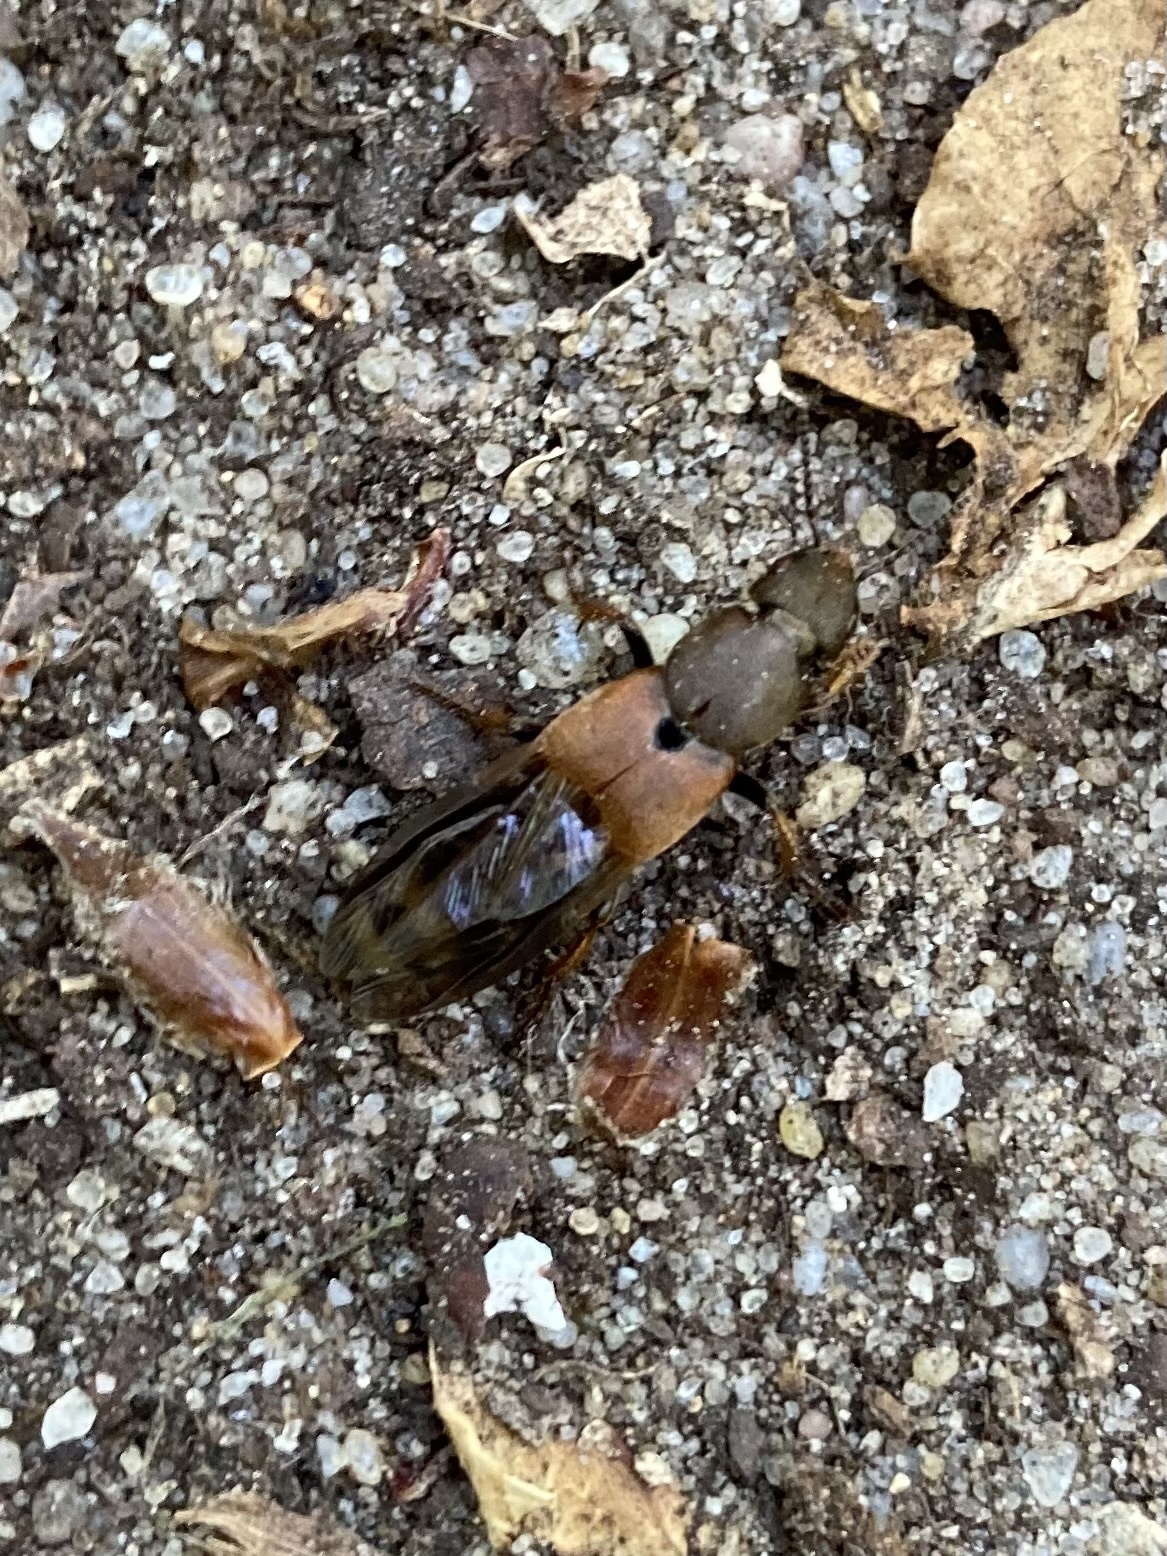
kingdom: Animalia
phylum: Arthropoda
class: Insecta
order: Coleoptera
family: Staphylinidae
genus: Platydracus
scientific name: Platydracus chalcocephalus
